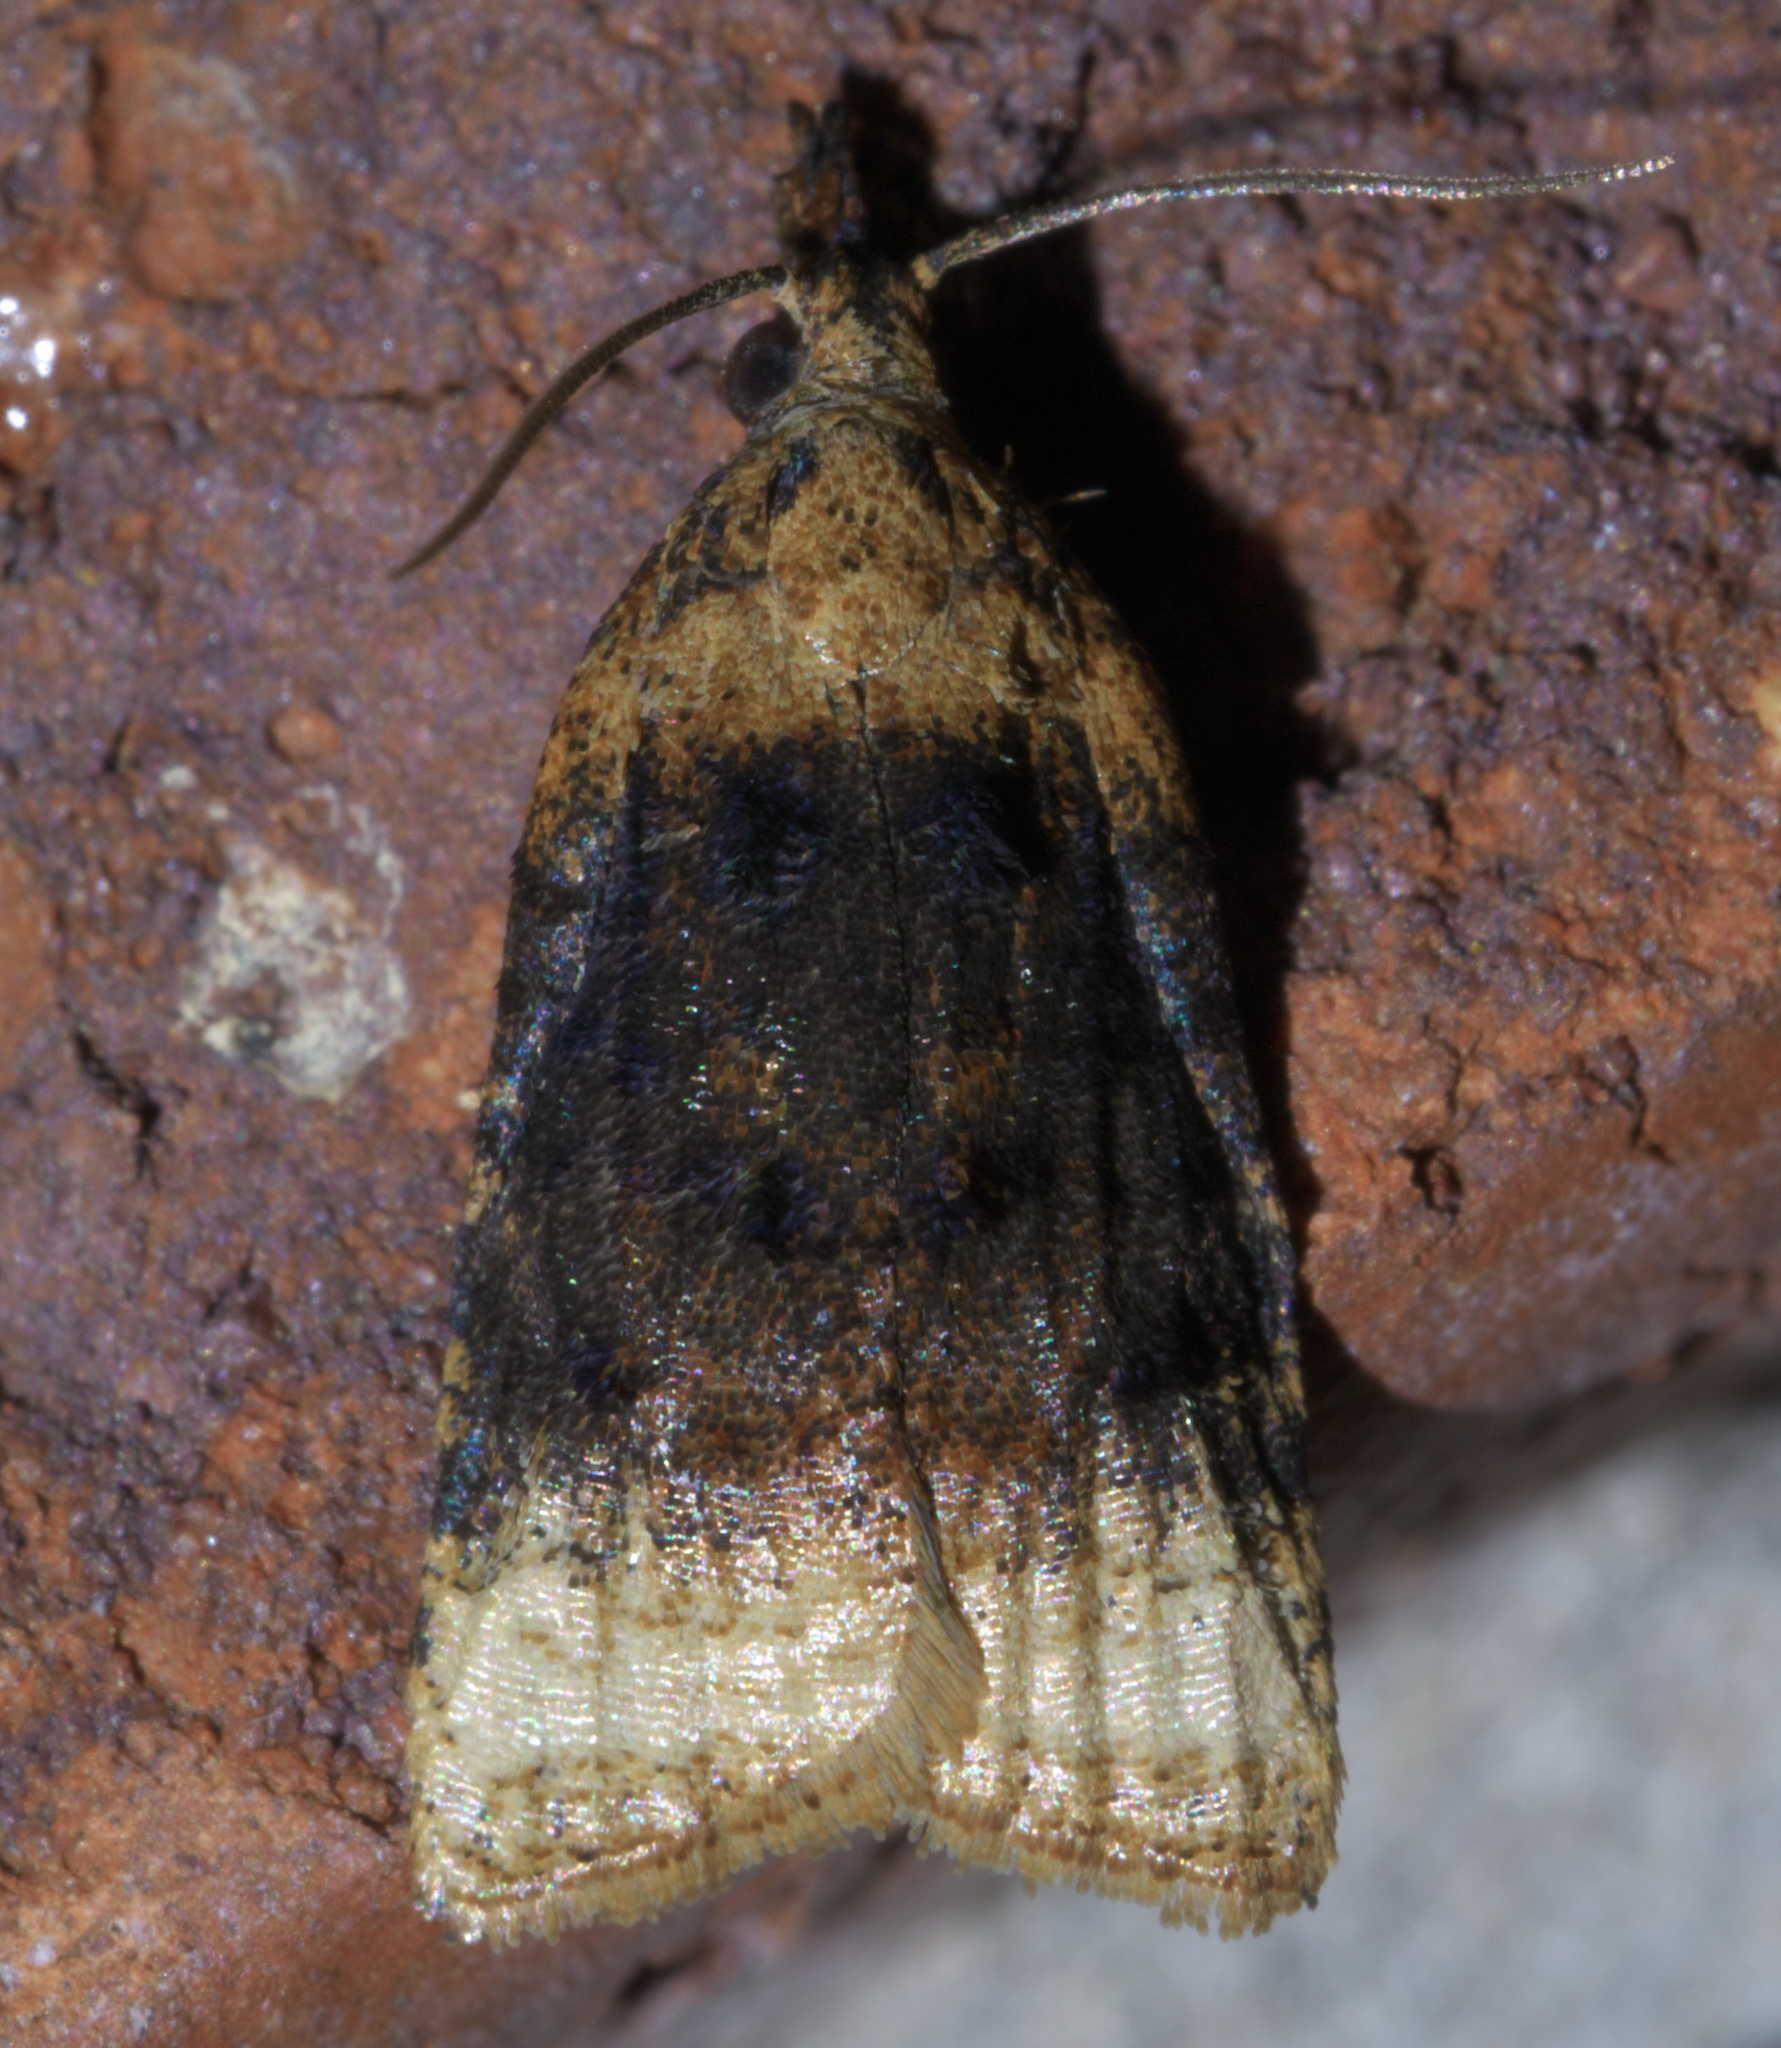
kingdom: Animalia
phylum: Arthropoda
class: Insecta
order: Lepidoptera
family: Tortricidae
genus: Platynota
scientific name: Platynota flavedana
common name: Black-shaded platynota moth
